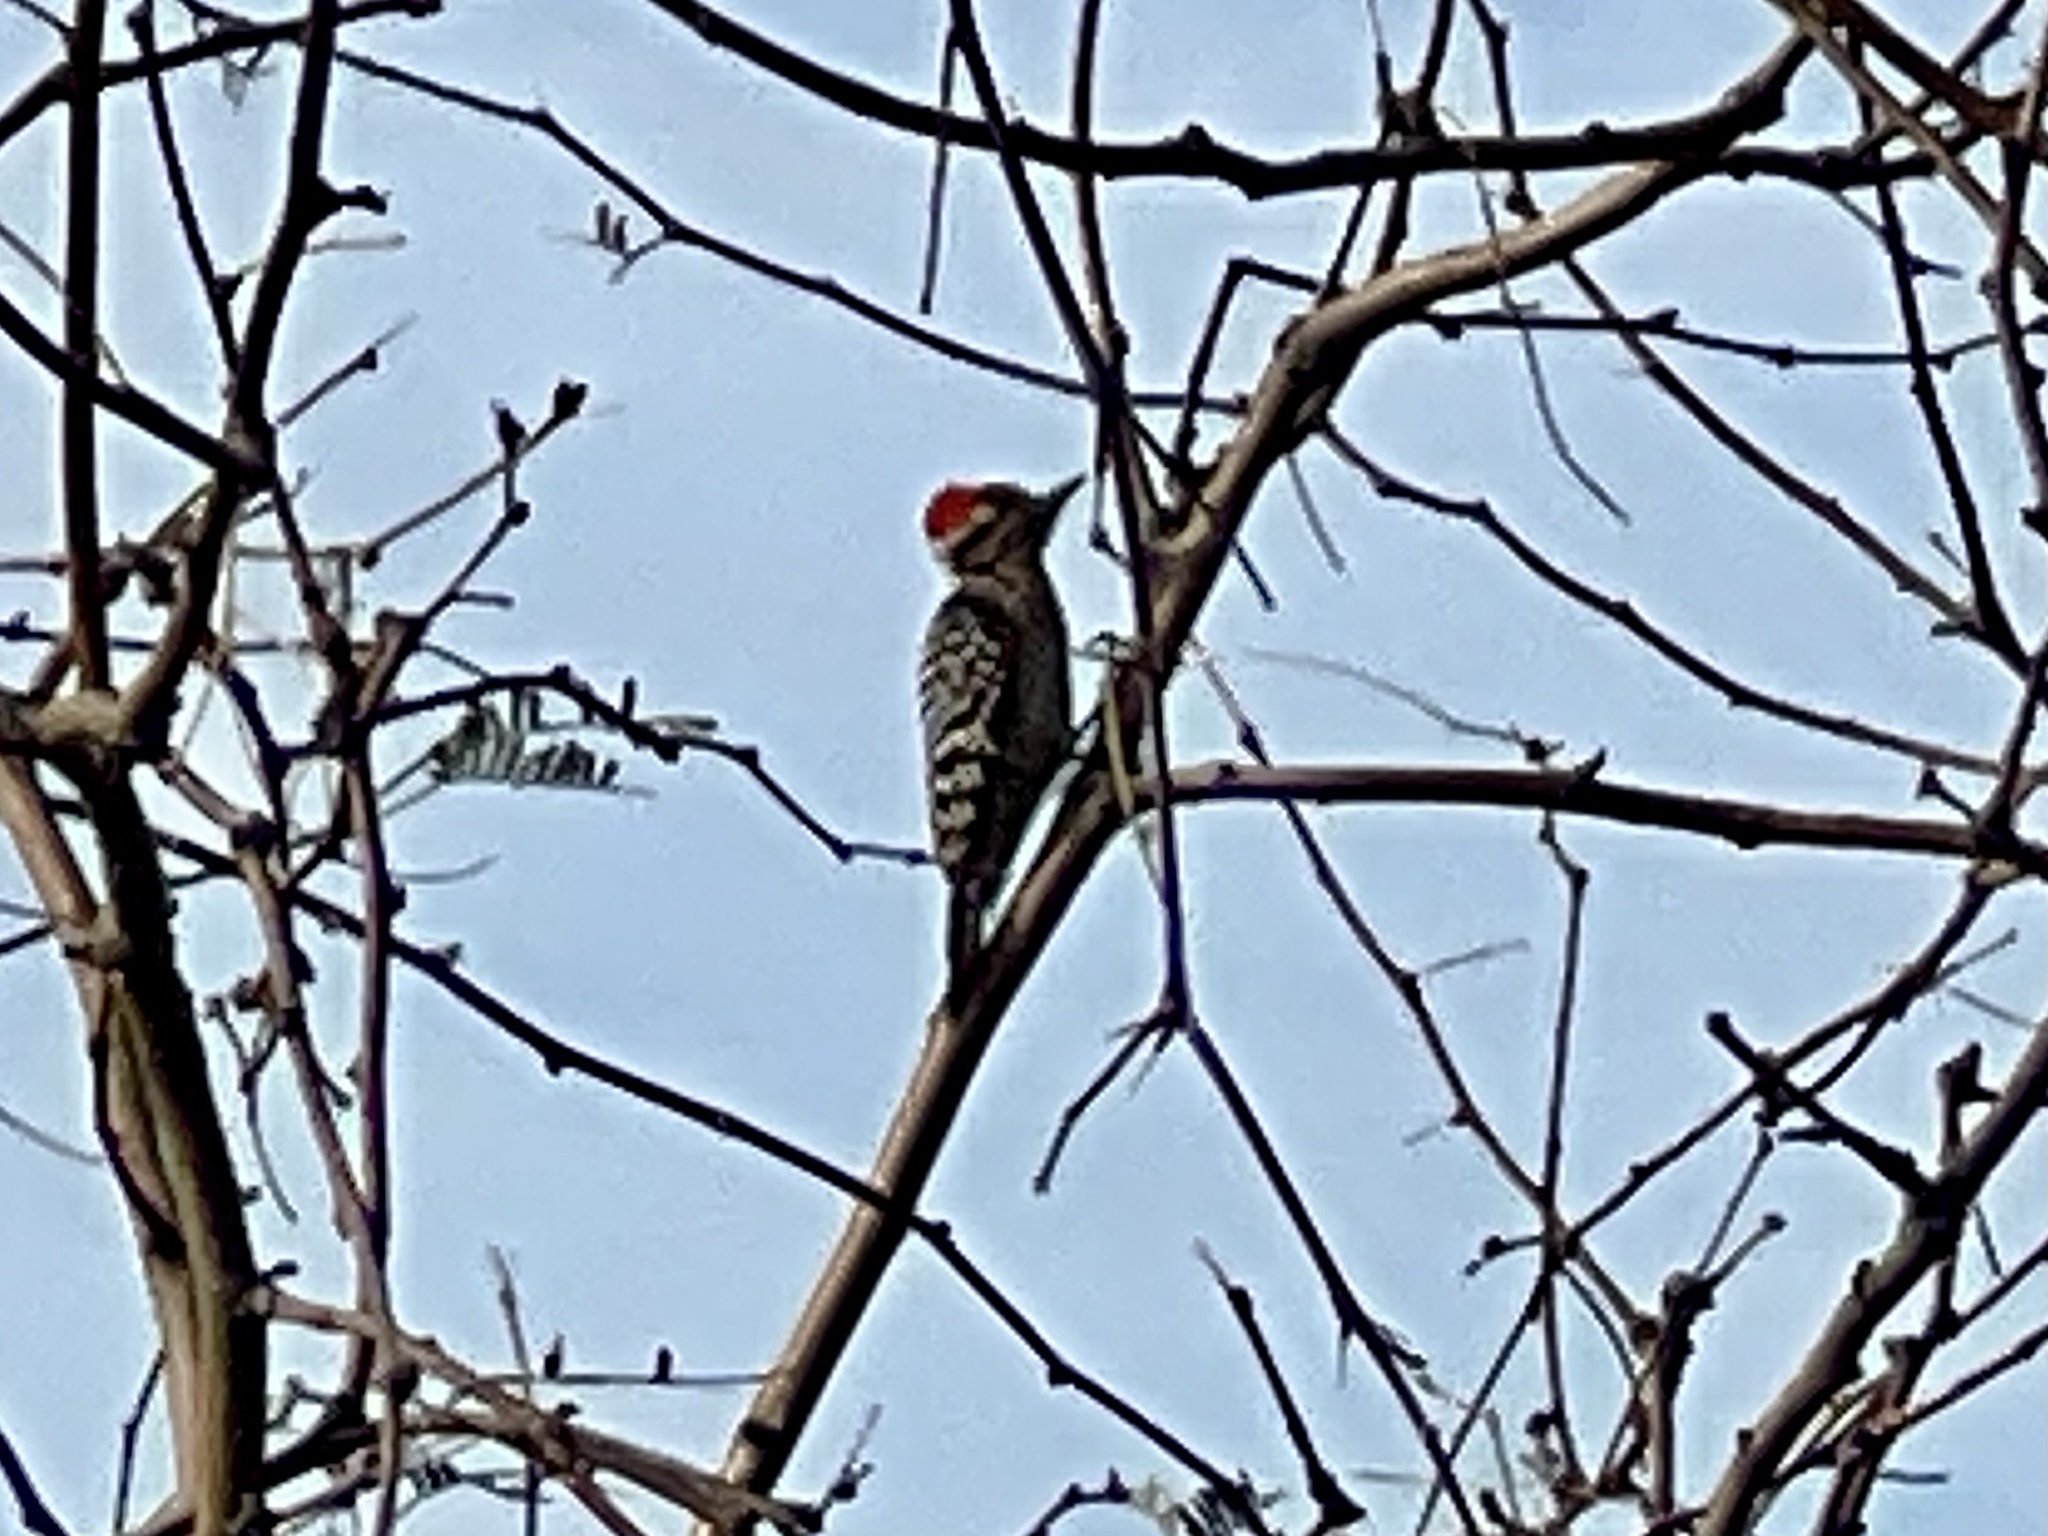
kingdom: Animalia
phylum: Chordata
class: Aves
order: Piciformes
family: Picidae
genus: Dryobates
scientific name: Dryobates scalaris
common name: Ladder-backed woodpecker
